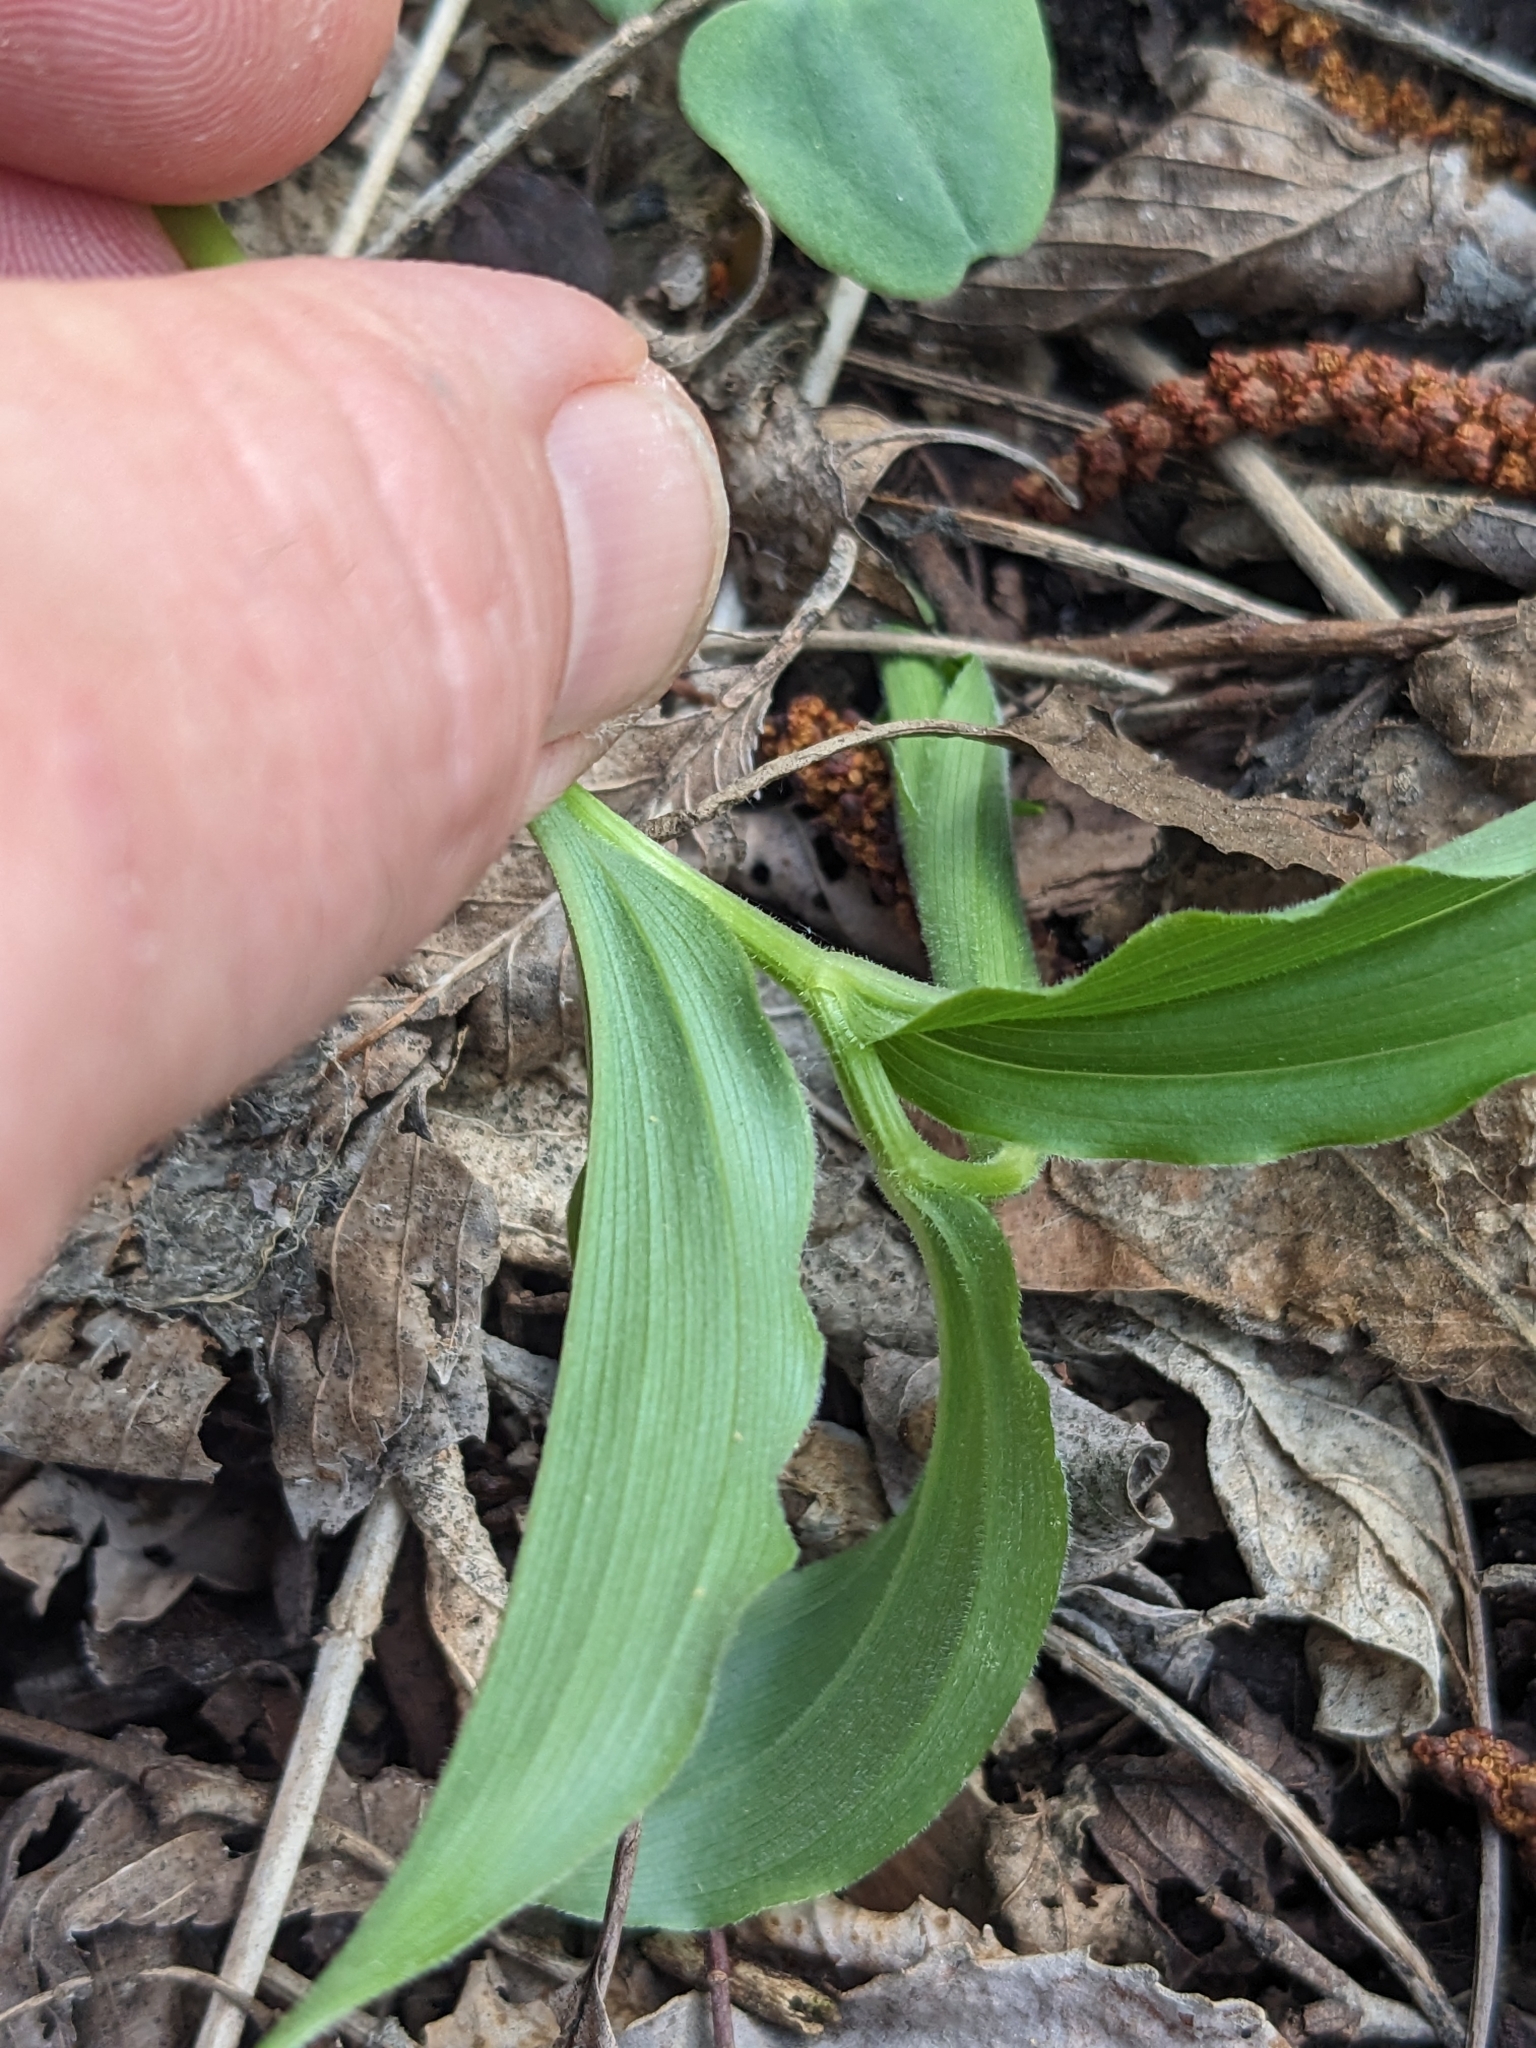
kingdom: Plantae
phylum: Tracheophyta
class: Liliopsida
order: Asparagales
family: Asparagaceae
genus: Maianthemum
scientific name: Maianthemum racemosum
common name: False spikenard
